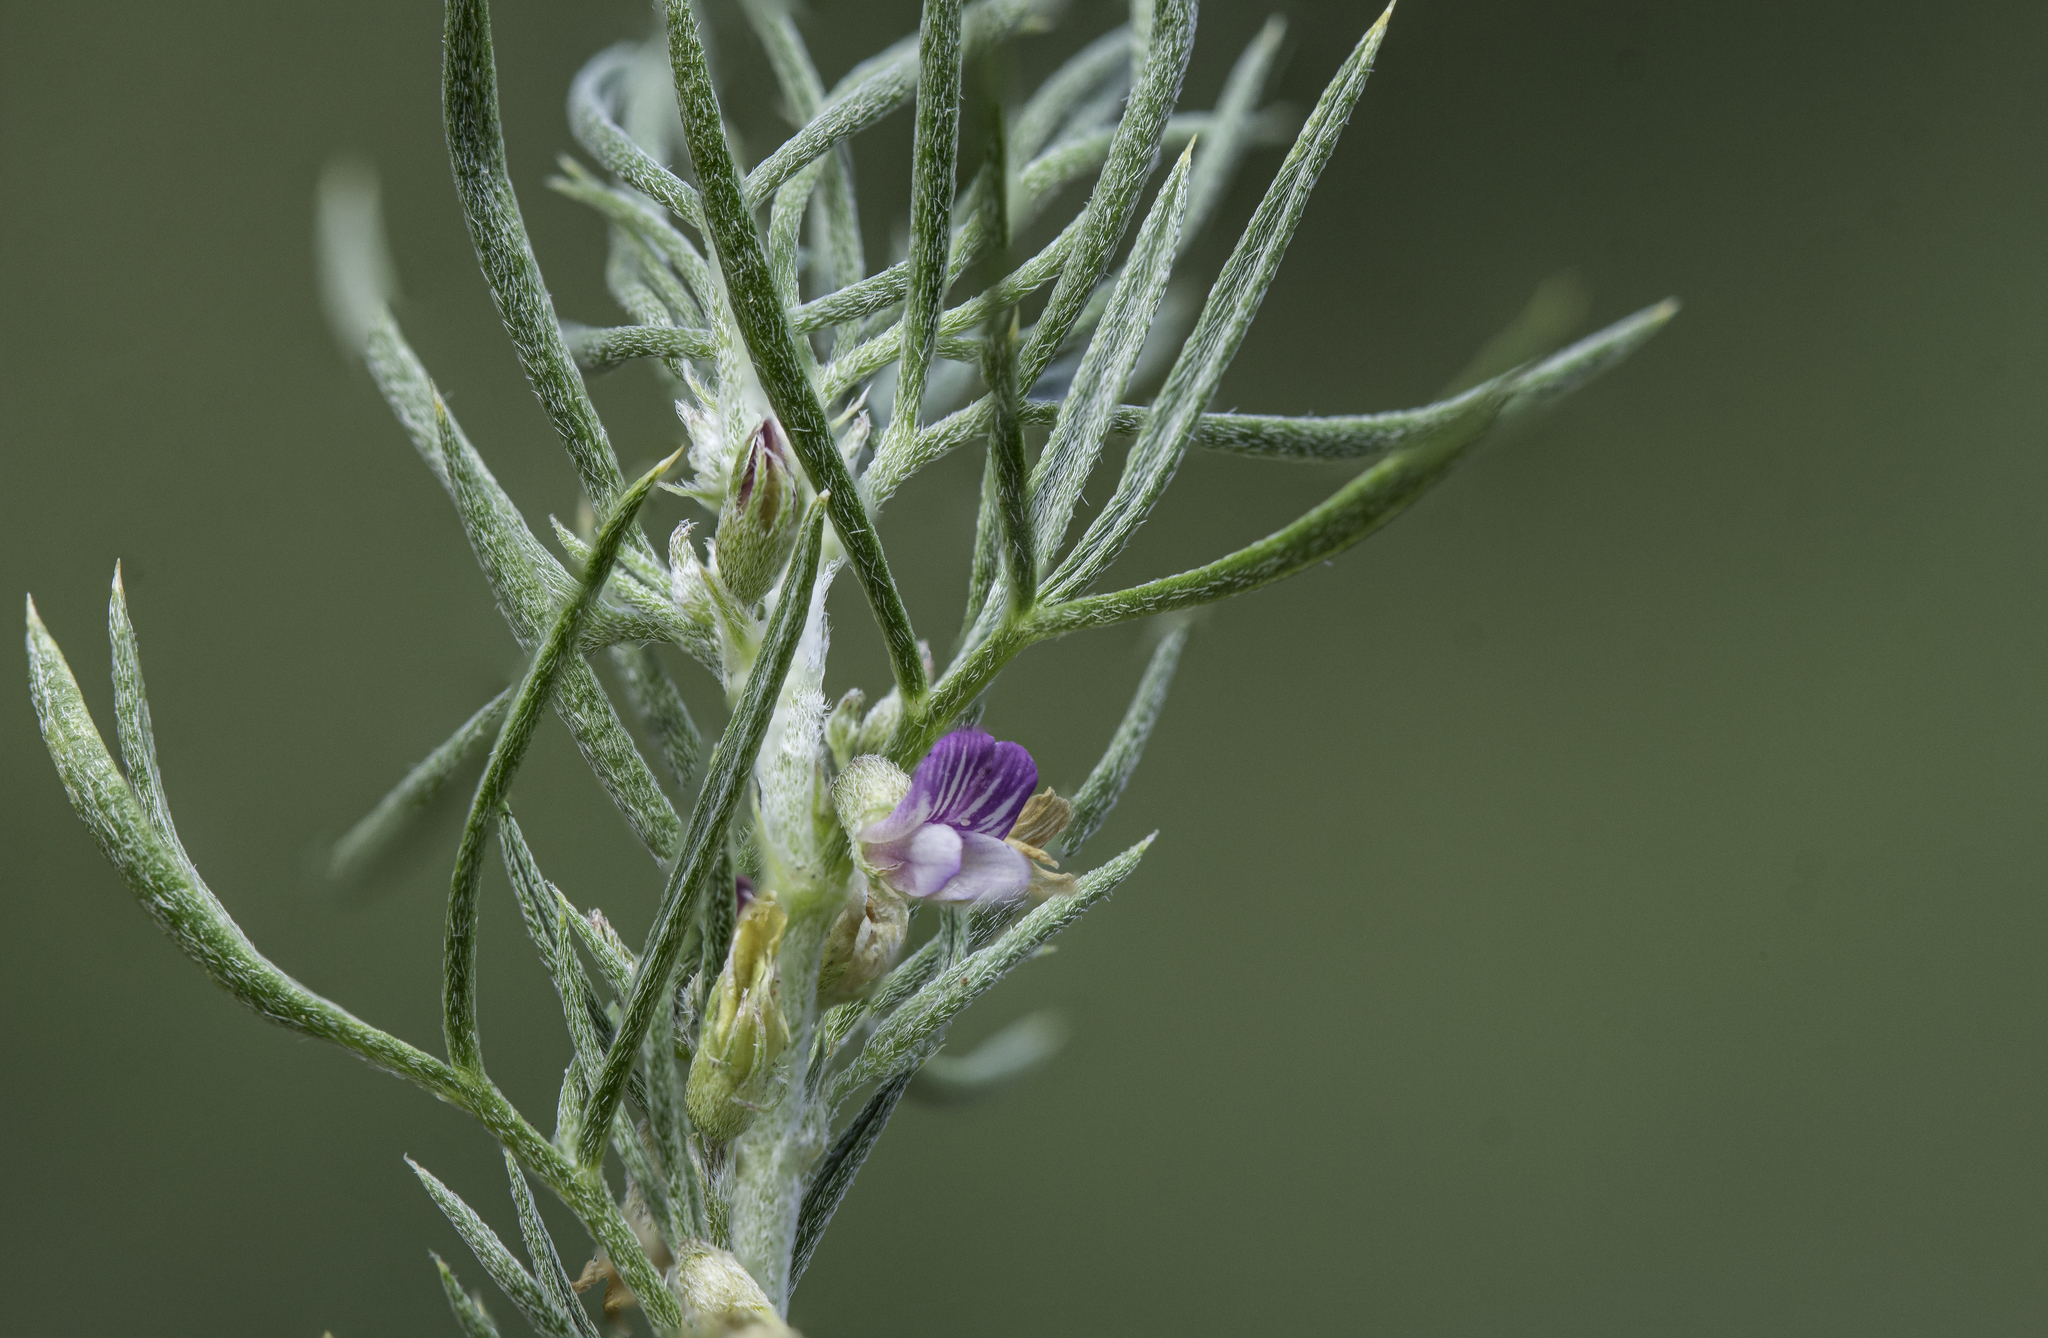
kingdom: Plantae
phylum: Tracheophyta
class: Magnoliopsida
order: Fabales
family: Fabaceae
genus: Astragalus
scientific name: Astragalus kentrophyta
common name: Prickly milk-vetch
